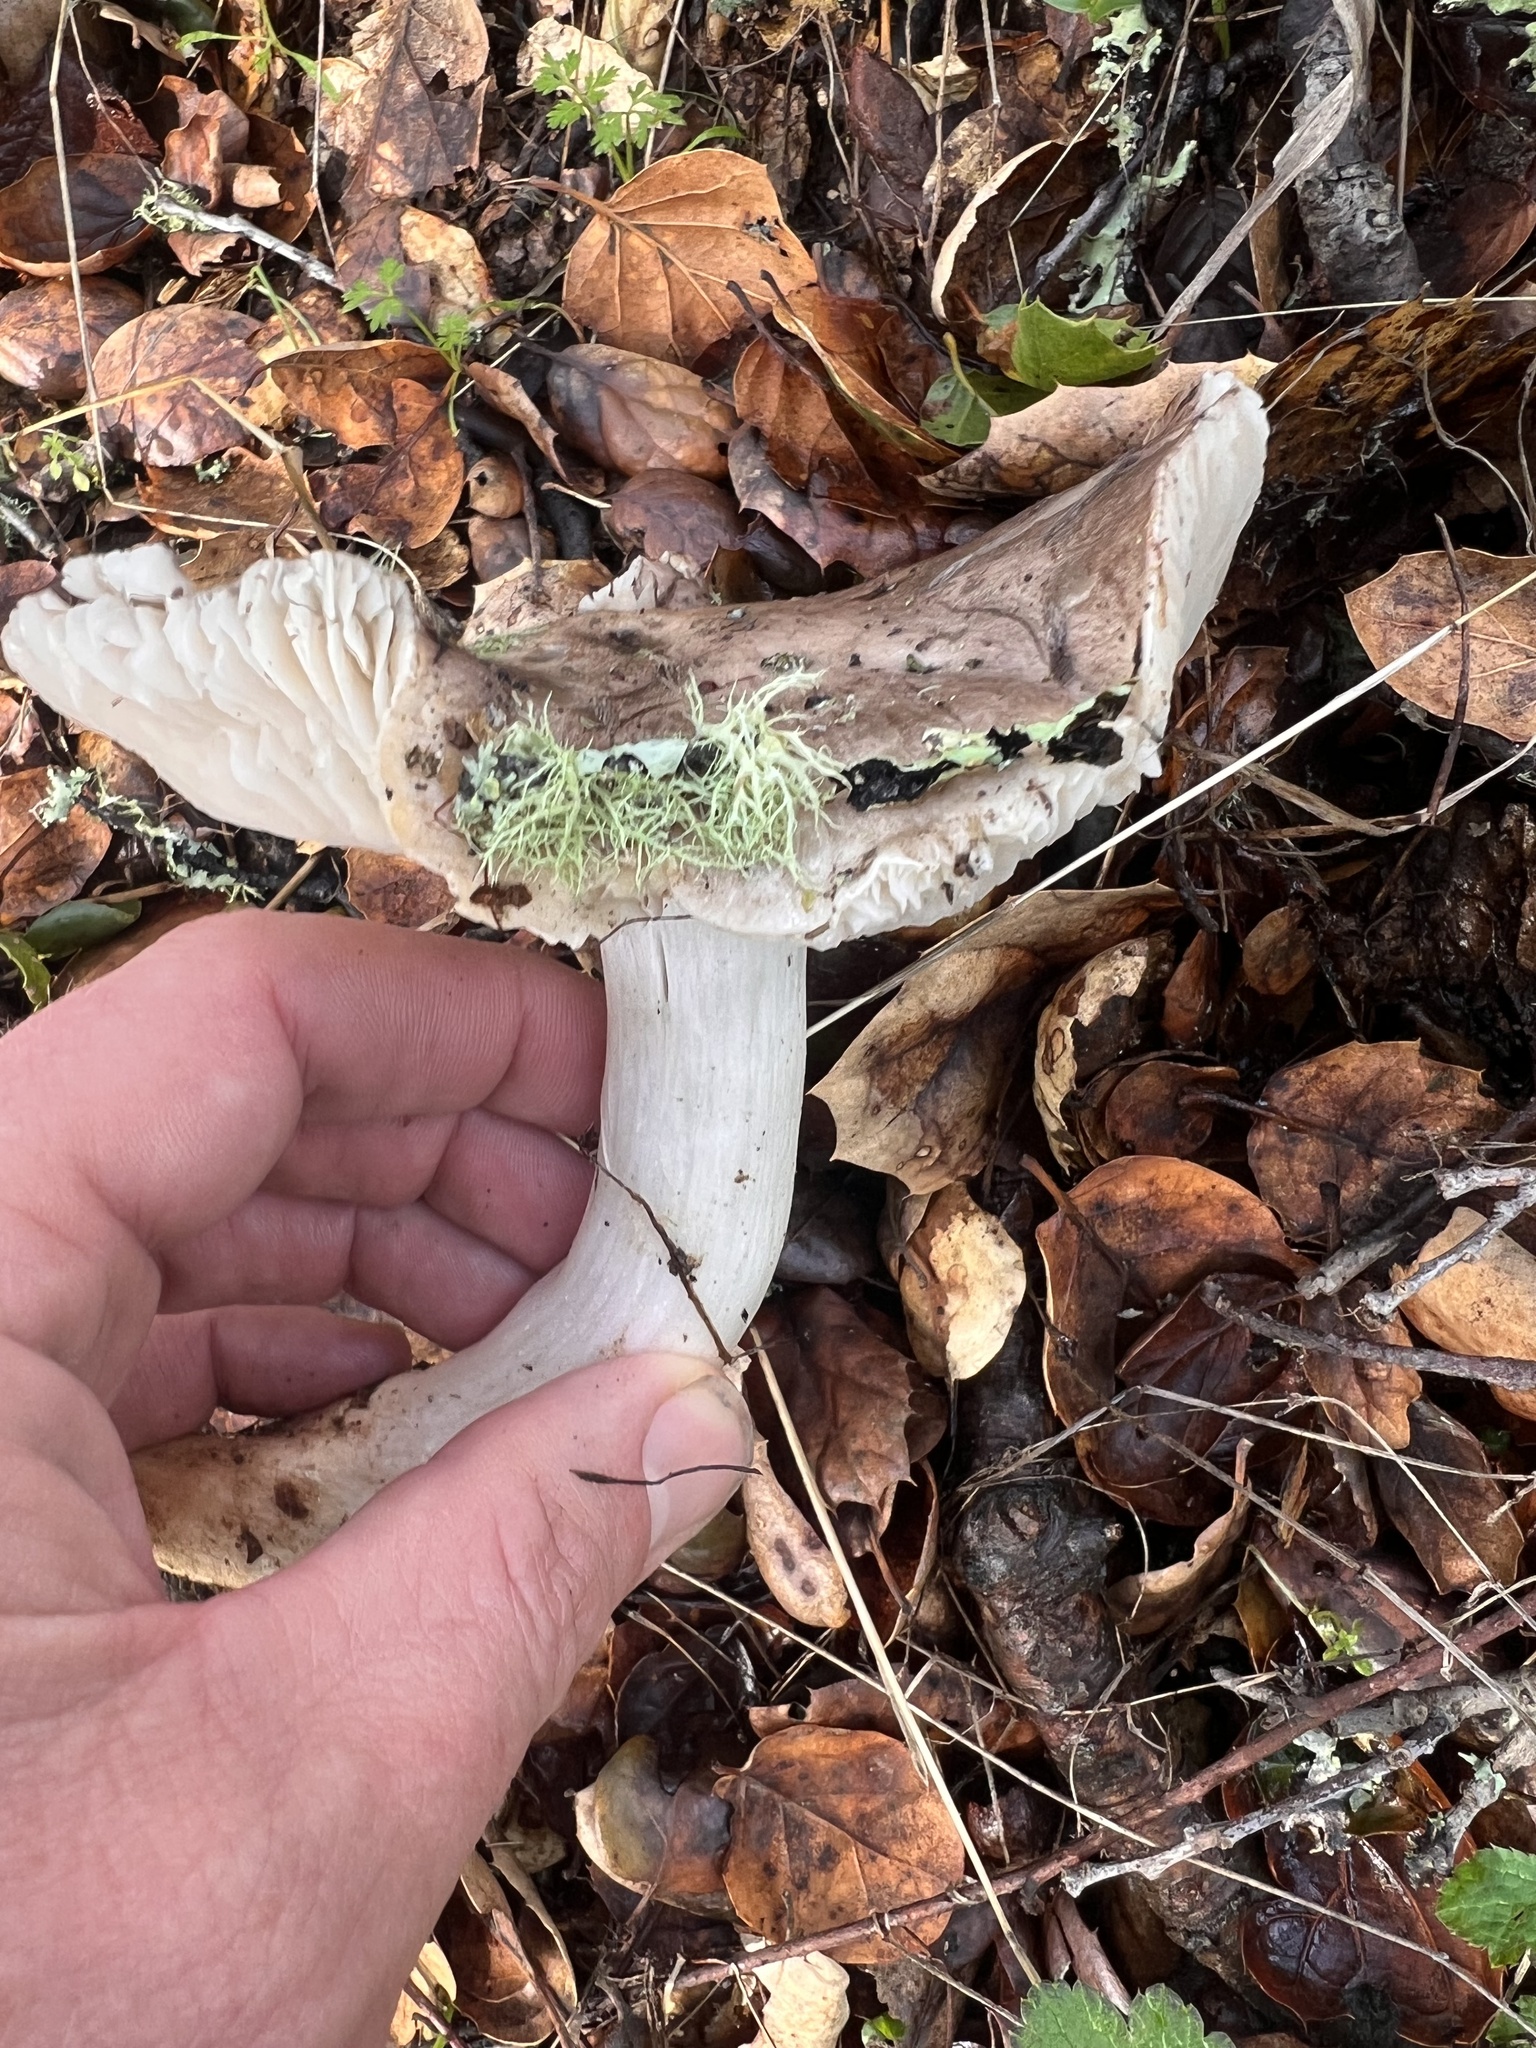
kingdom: Fungi
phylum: Basidiomycota
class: Agaricomycetes
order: Agaricales
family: Tricholomataceae
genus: Tricholoma
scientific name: Tricholoma griseoviolaceum
